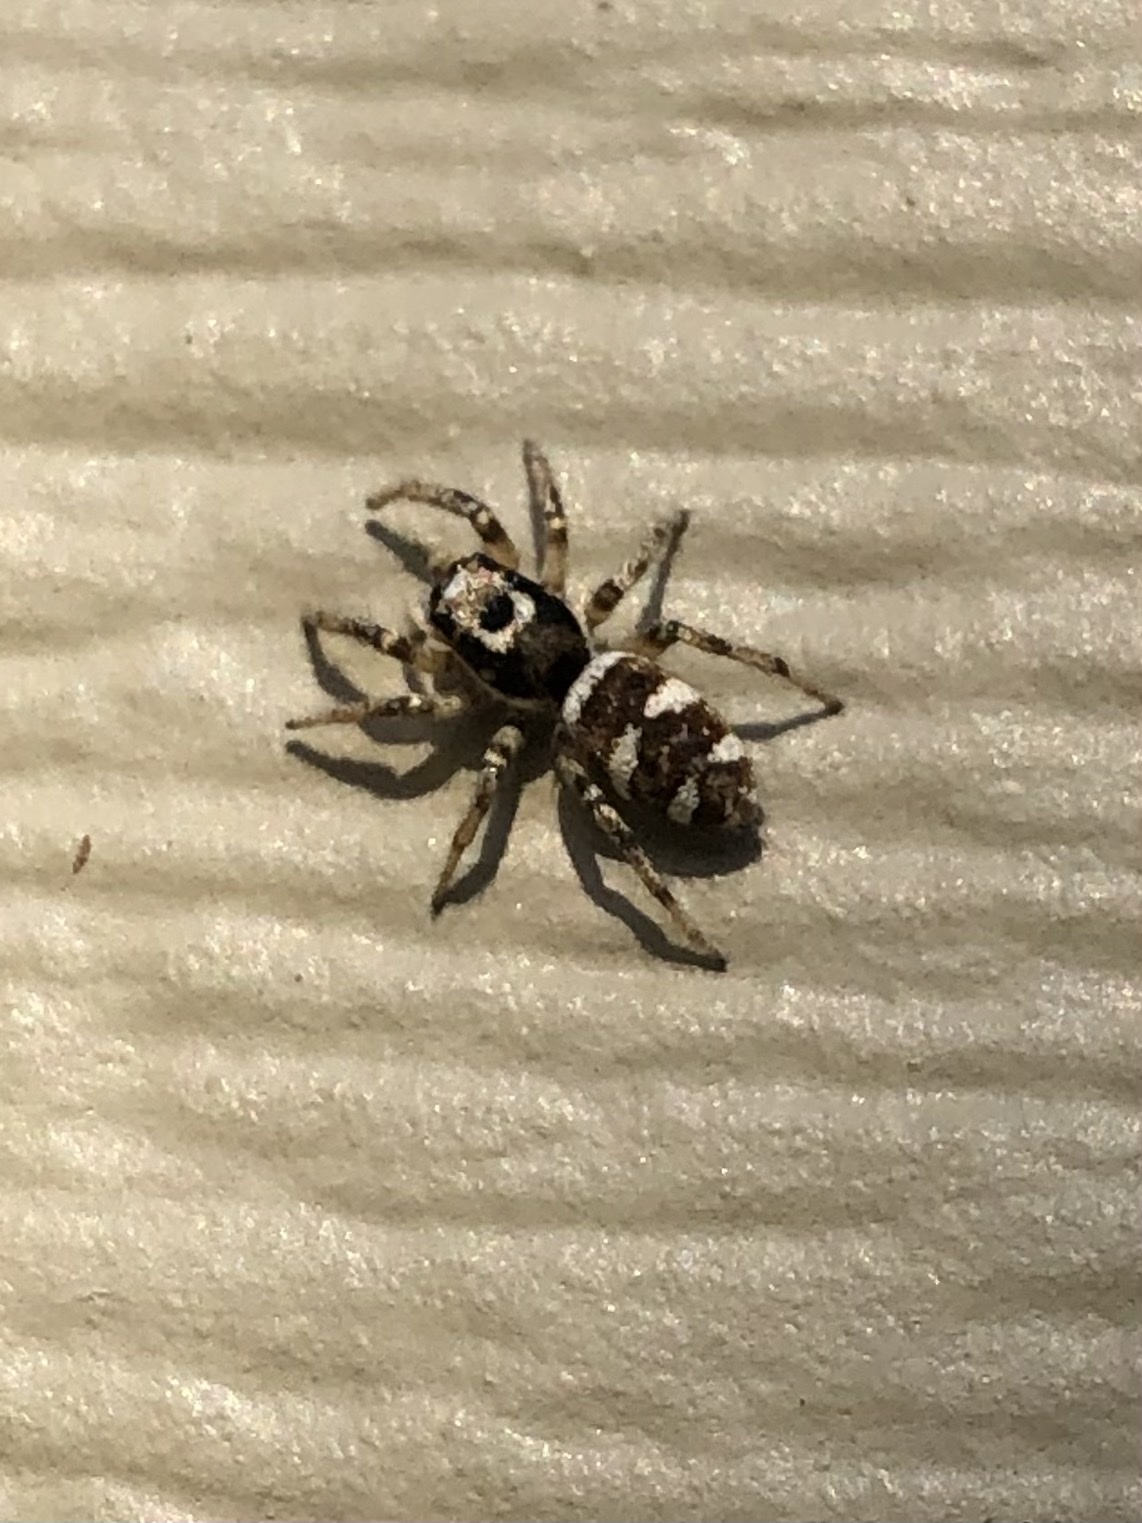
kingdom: Animalia
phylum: Arthropoda
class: Arachnida
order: Araneae
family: Salticidae
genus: Salticus
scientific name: Salticus scenicus
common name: Zebra jumper
